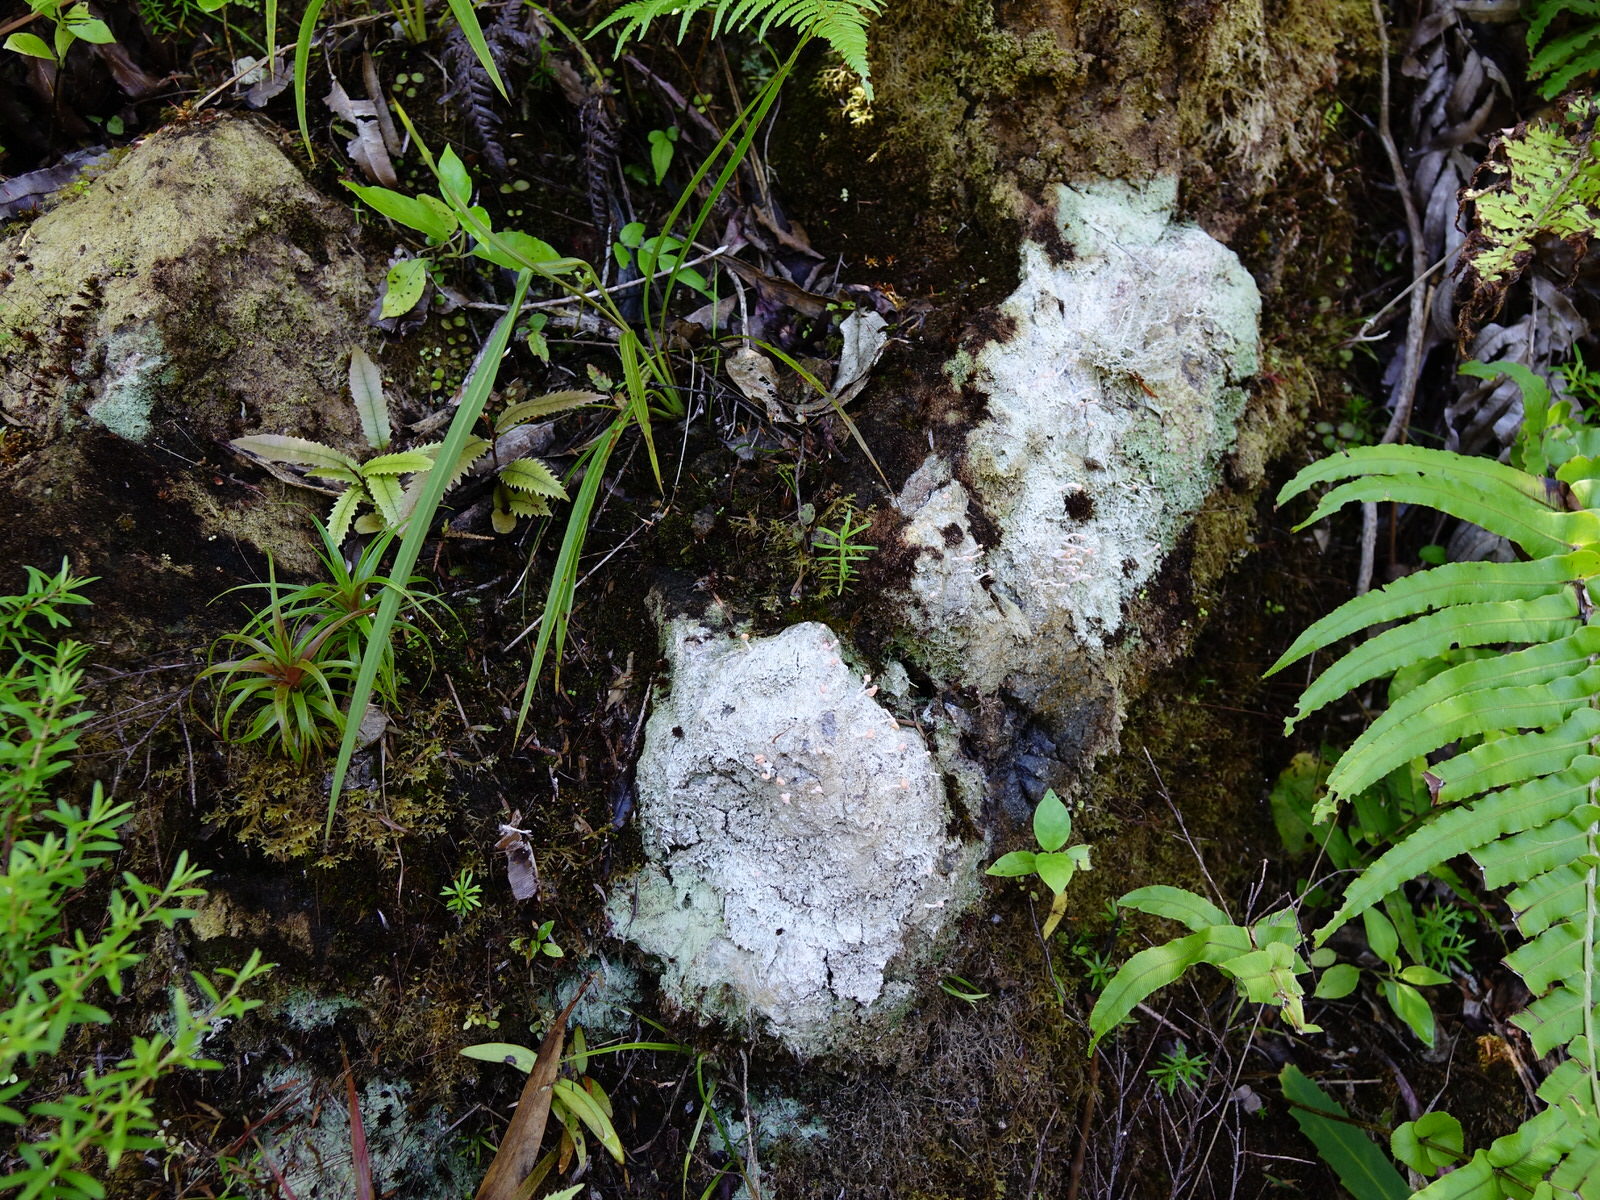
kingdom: Fungi
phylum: Ascomycota
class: Lecanoromycetes
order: Pertusariales
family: Icmadophilaceae
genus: Dibaeis
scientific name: Dibaeis arcuata
